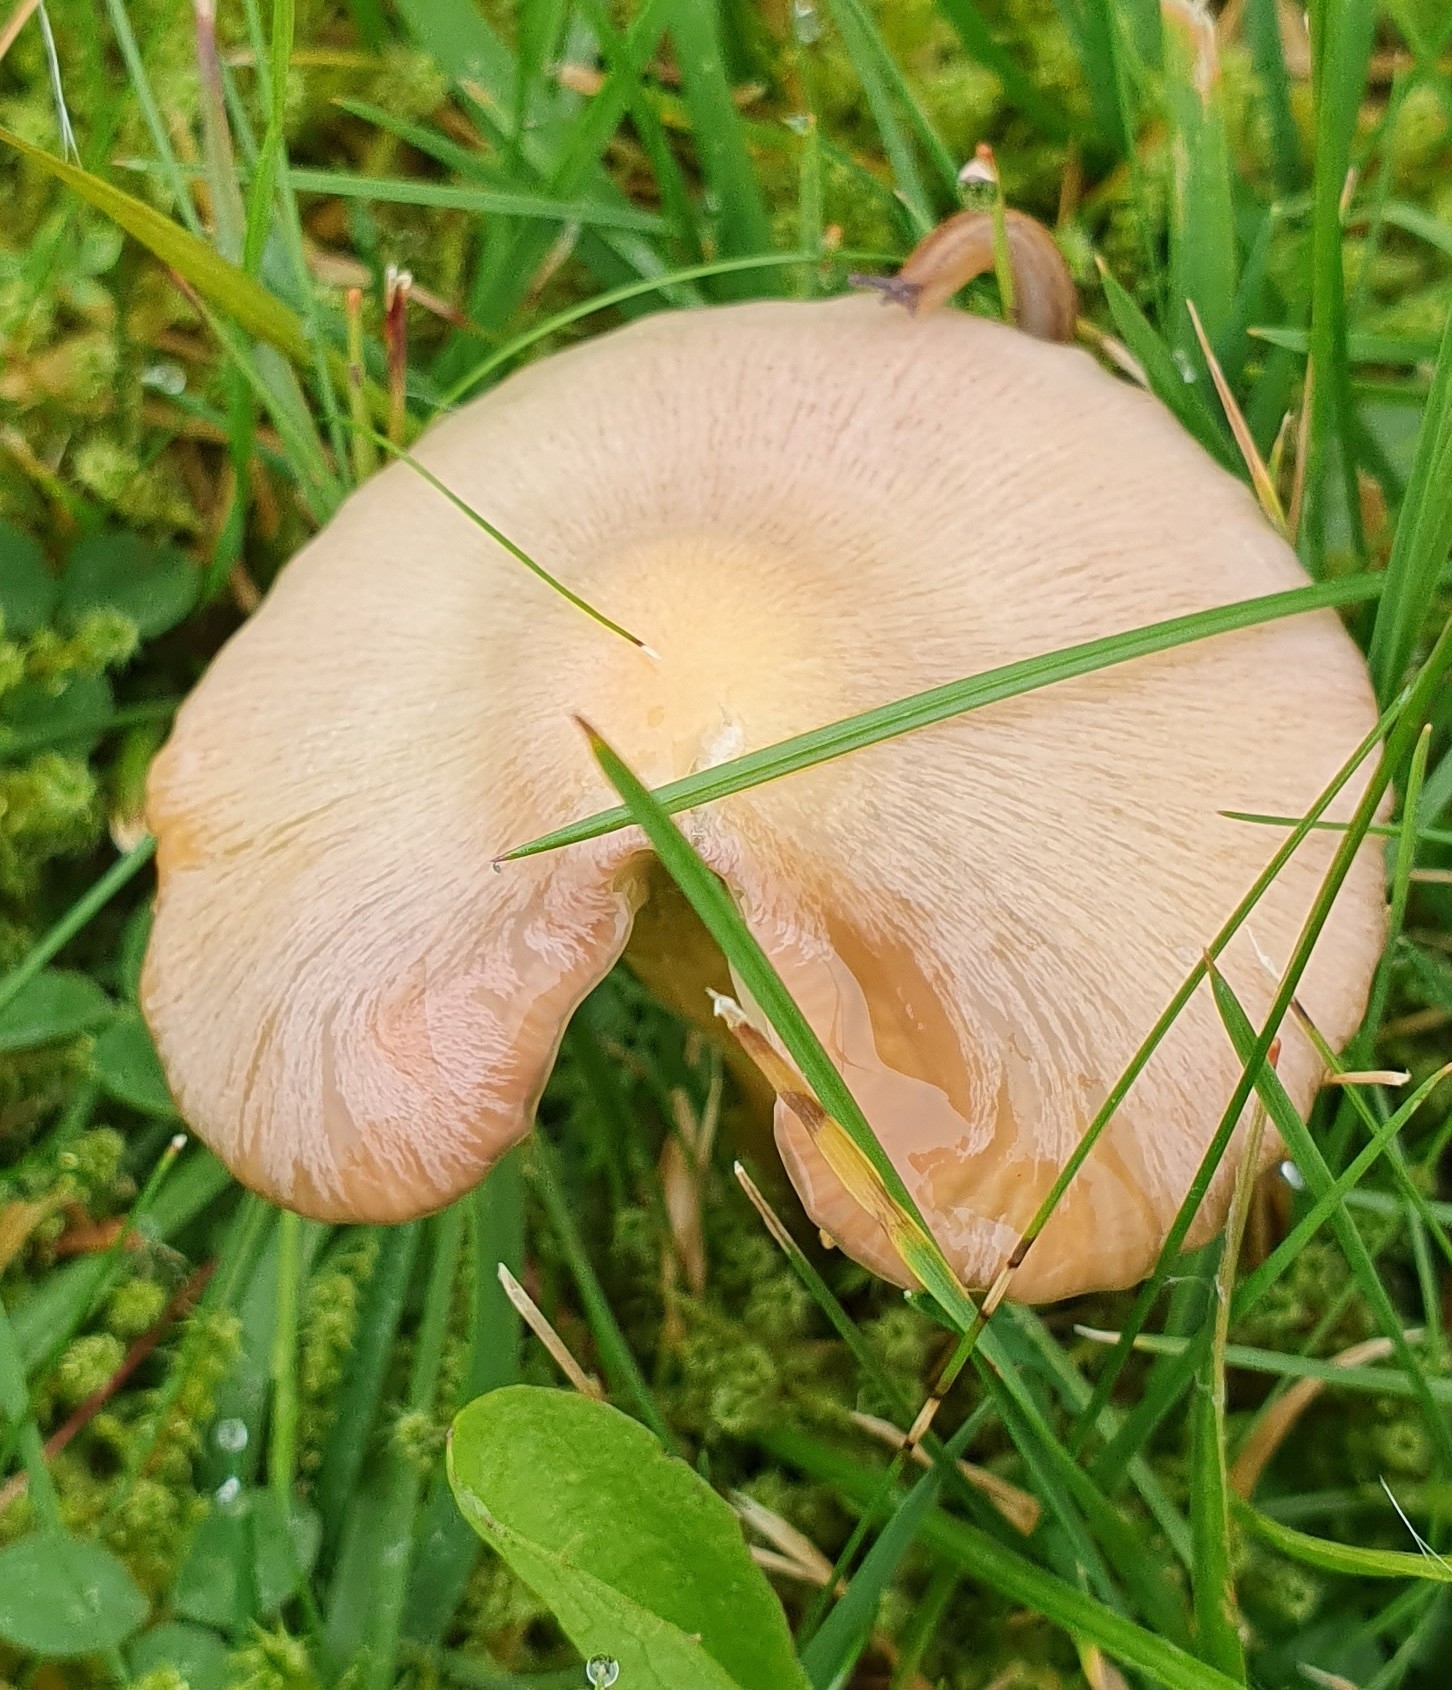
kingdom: Fungi
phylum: Basidiomycota
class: Agaricomycetes
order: Agaricales
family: Hygrophoraceae
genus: Gliophorus
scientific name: Gliophorus psittacinus
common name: Parrot wax-cap
